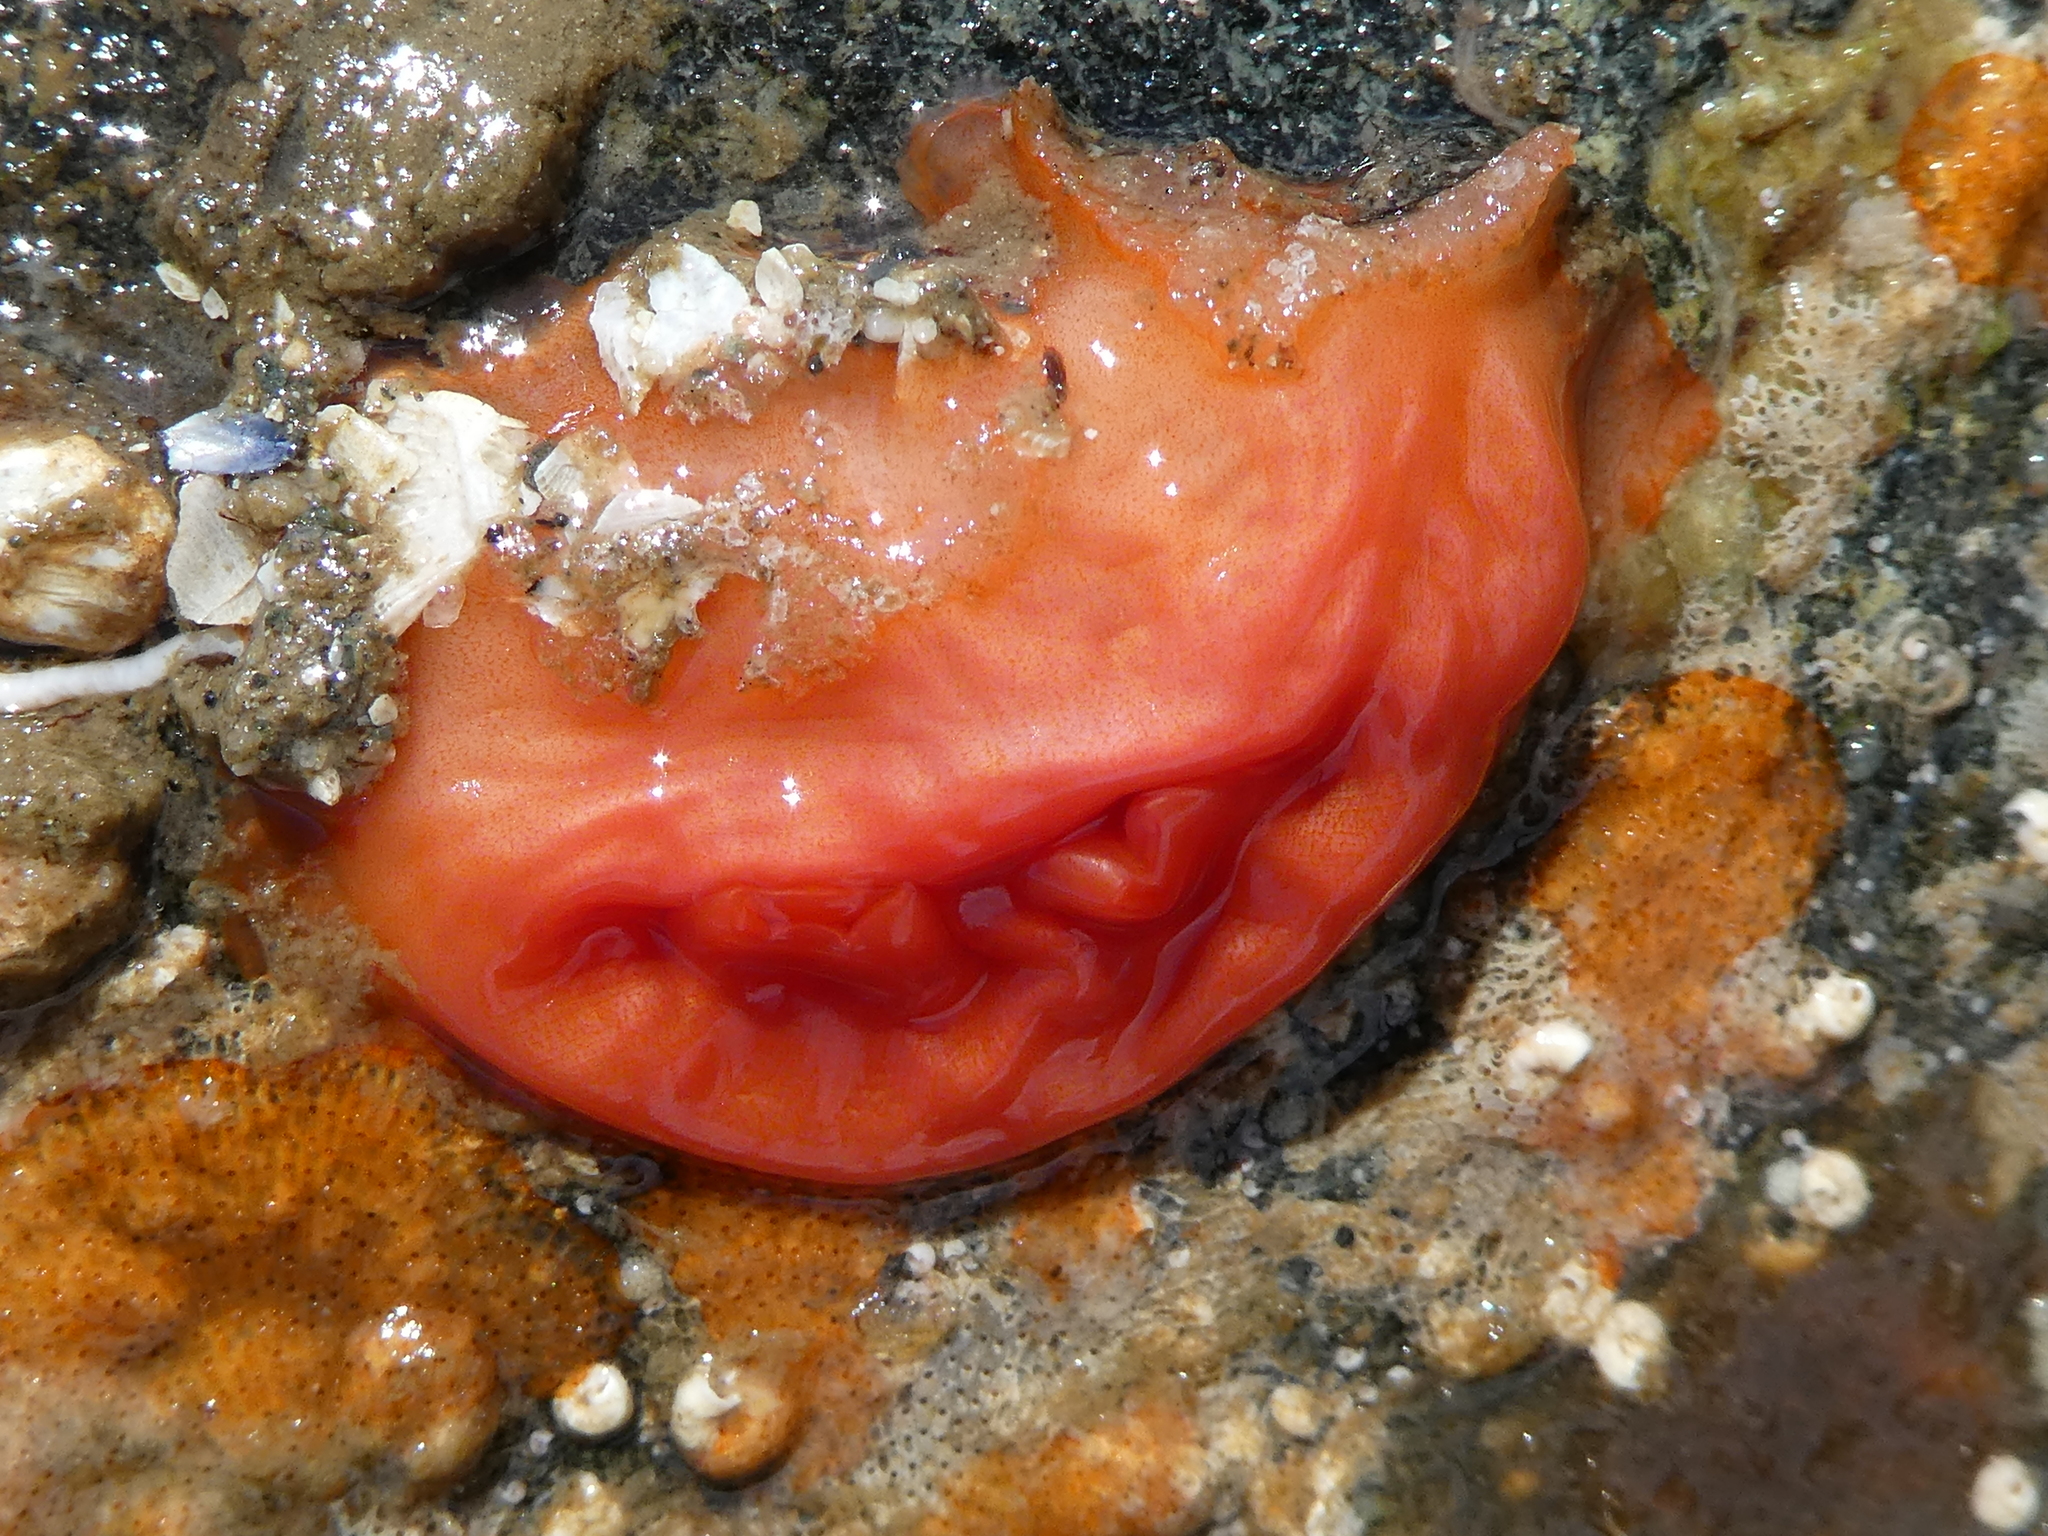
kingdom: Animalia
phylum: Chordata
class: Ascidiacea
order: Stolidobranchia
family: Styelidae
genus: Cnemidocarpa
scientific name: Cnemidocarpa finmarkiensis
